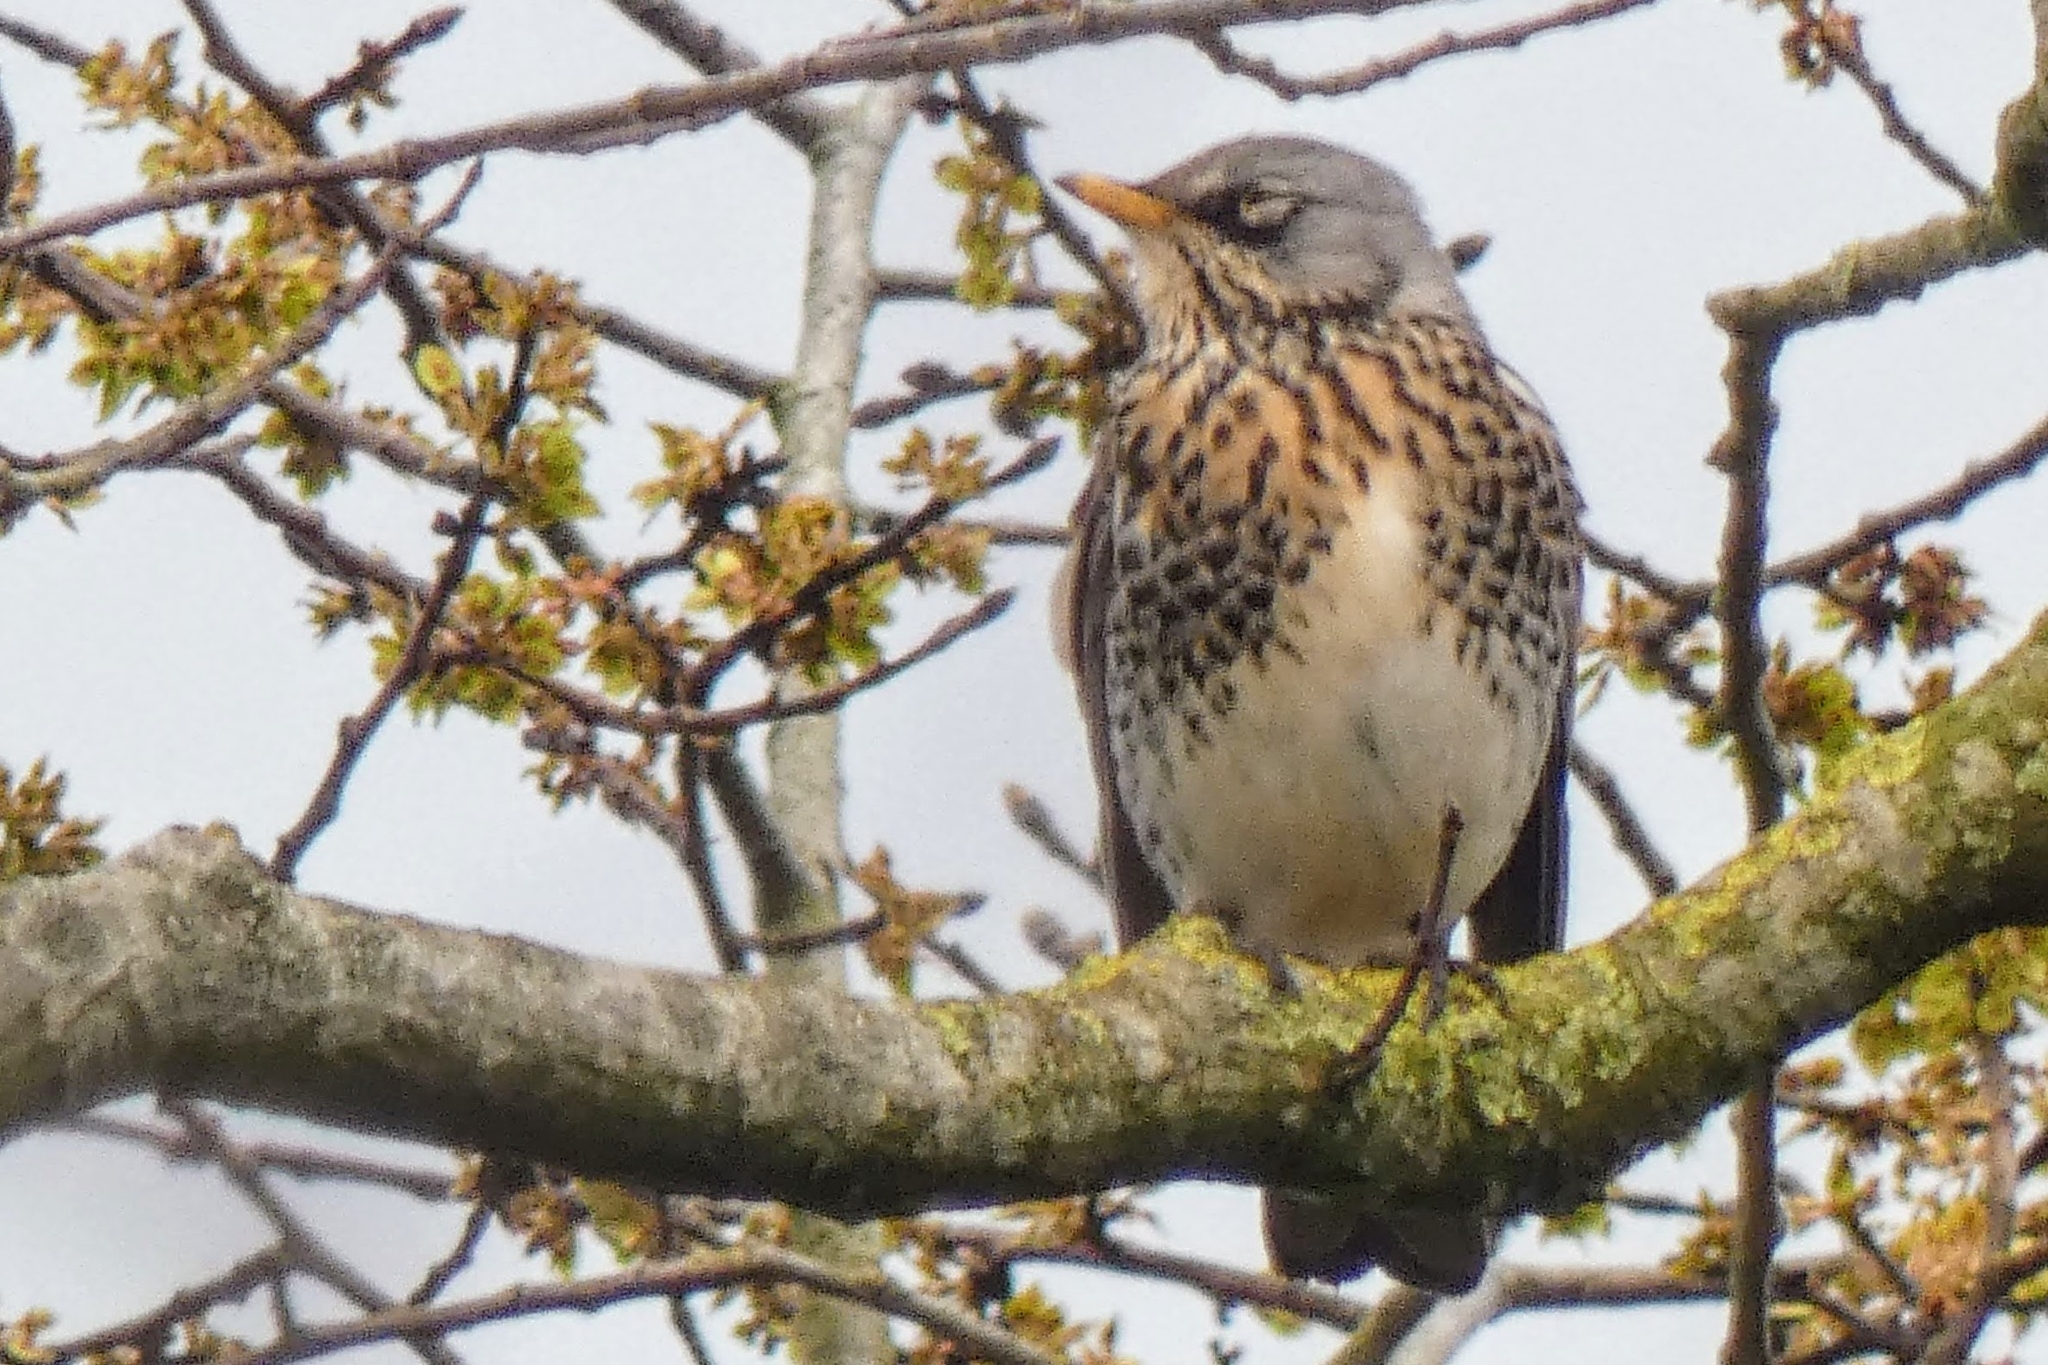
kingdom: Animalia
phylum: Chordata
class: Aves
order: Passeriformes
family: Turdidae
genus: Turdus
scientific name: Turdus pilaris
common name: Fieldfare
